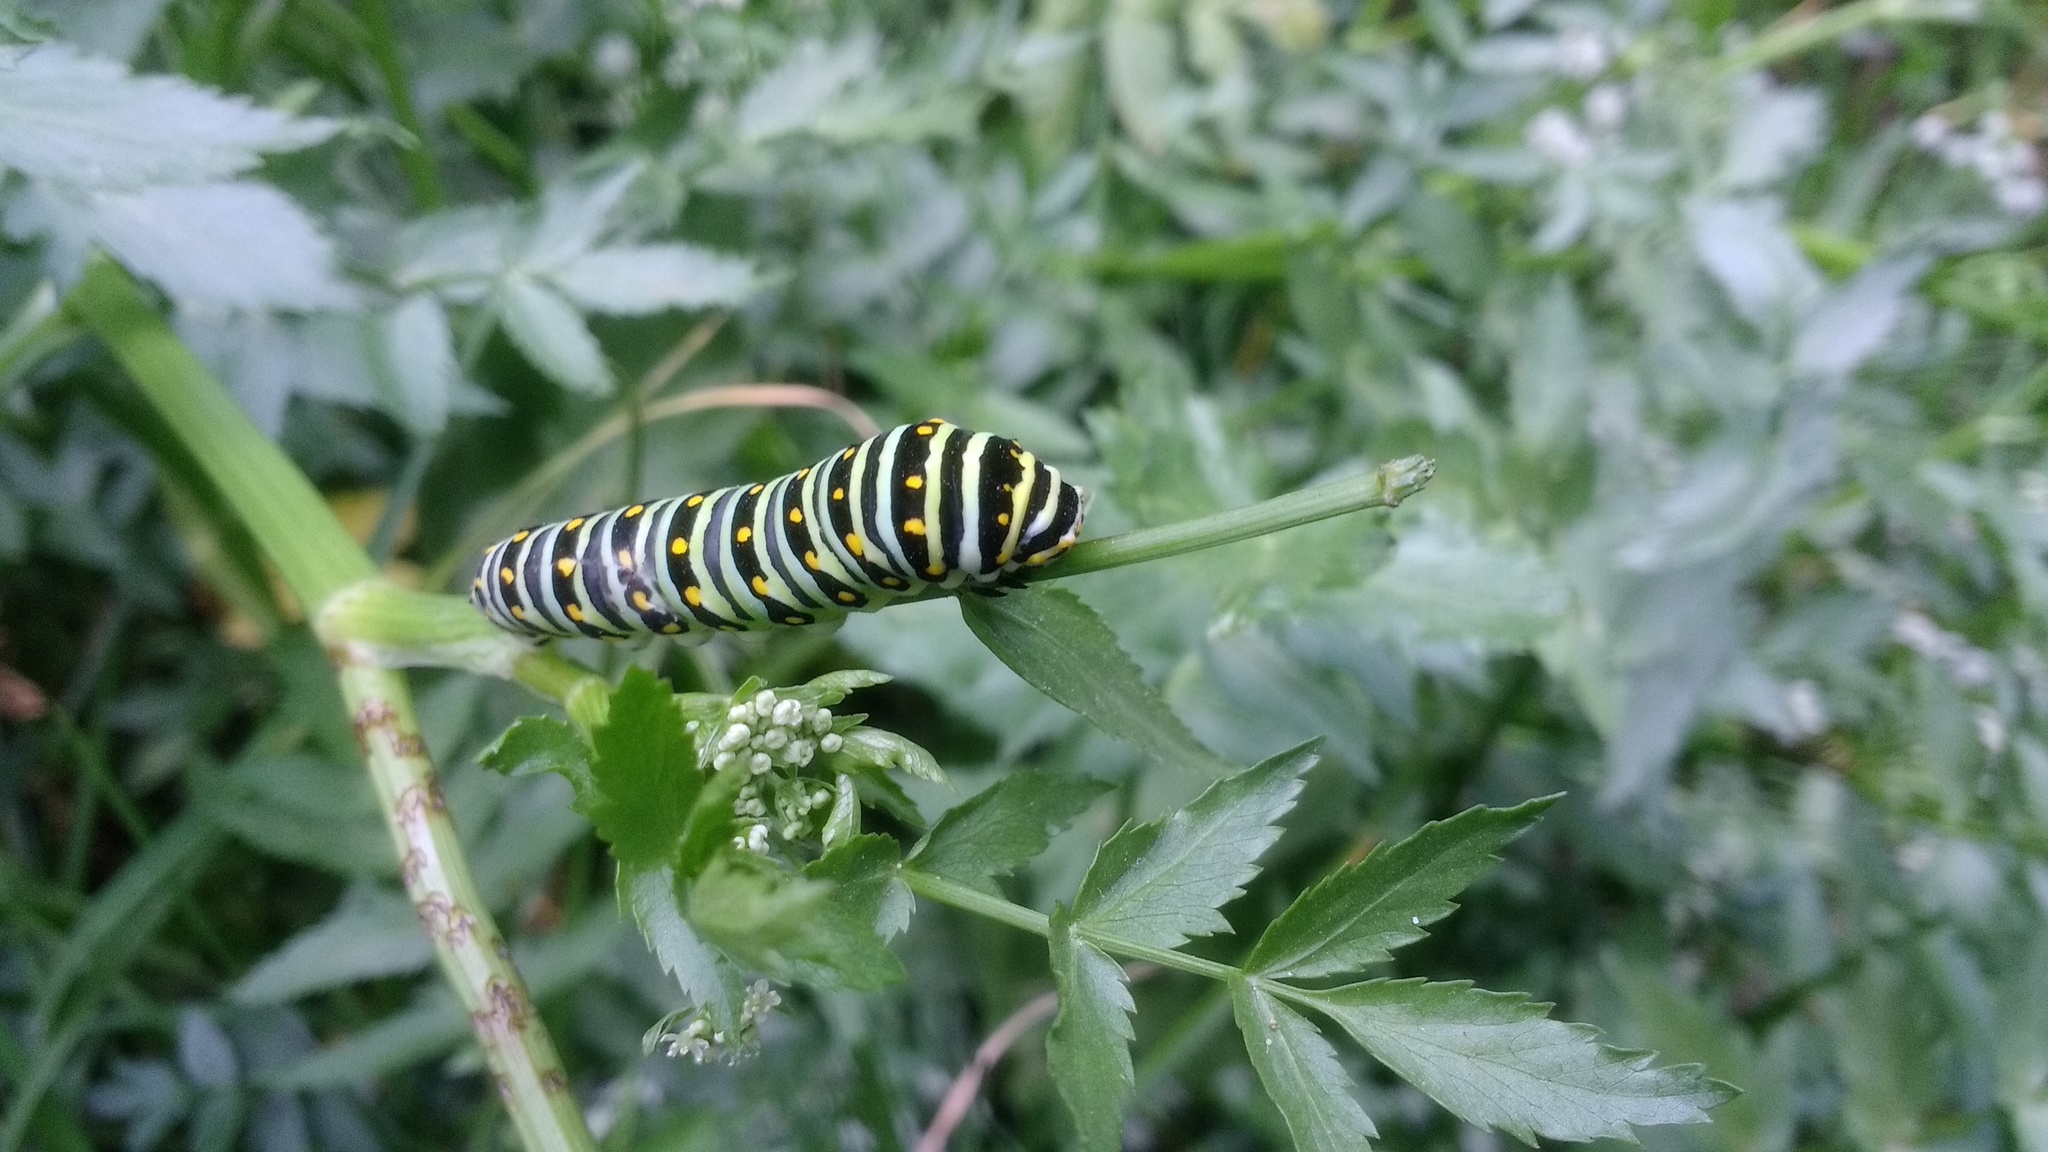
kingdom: Animalia
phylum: Arthropoda
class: Insecta
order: Lepidoptera
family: Papilionidae
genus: Papilio
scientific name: Papilio polyxenes
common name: Black swallowtail
